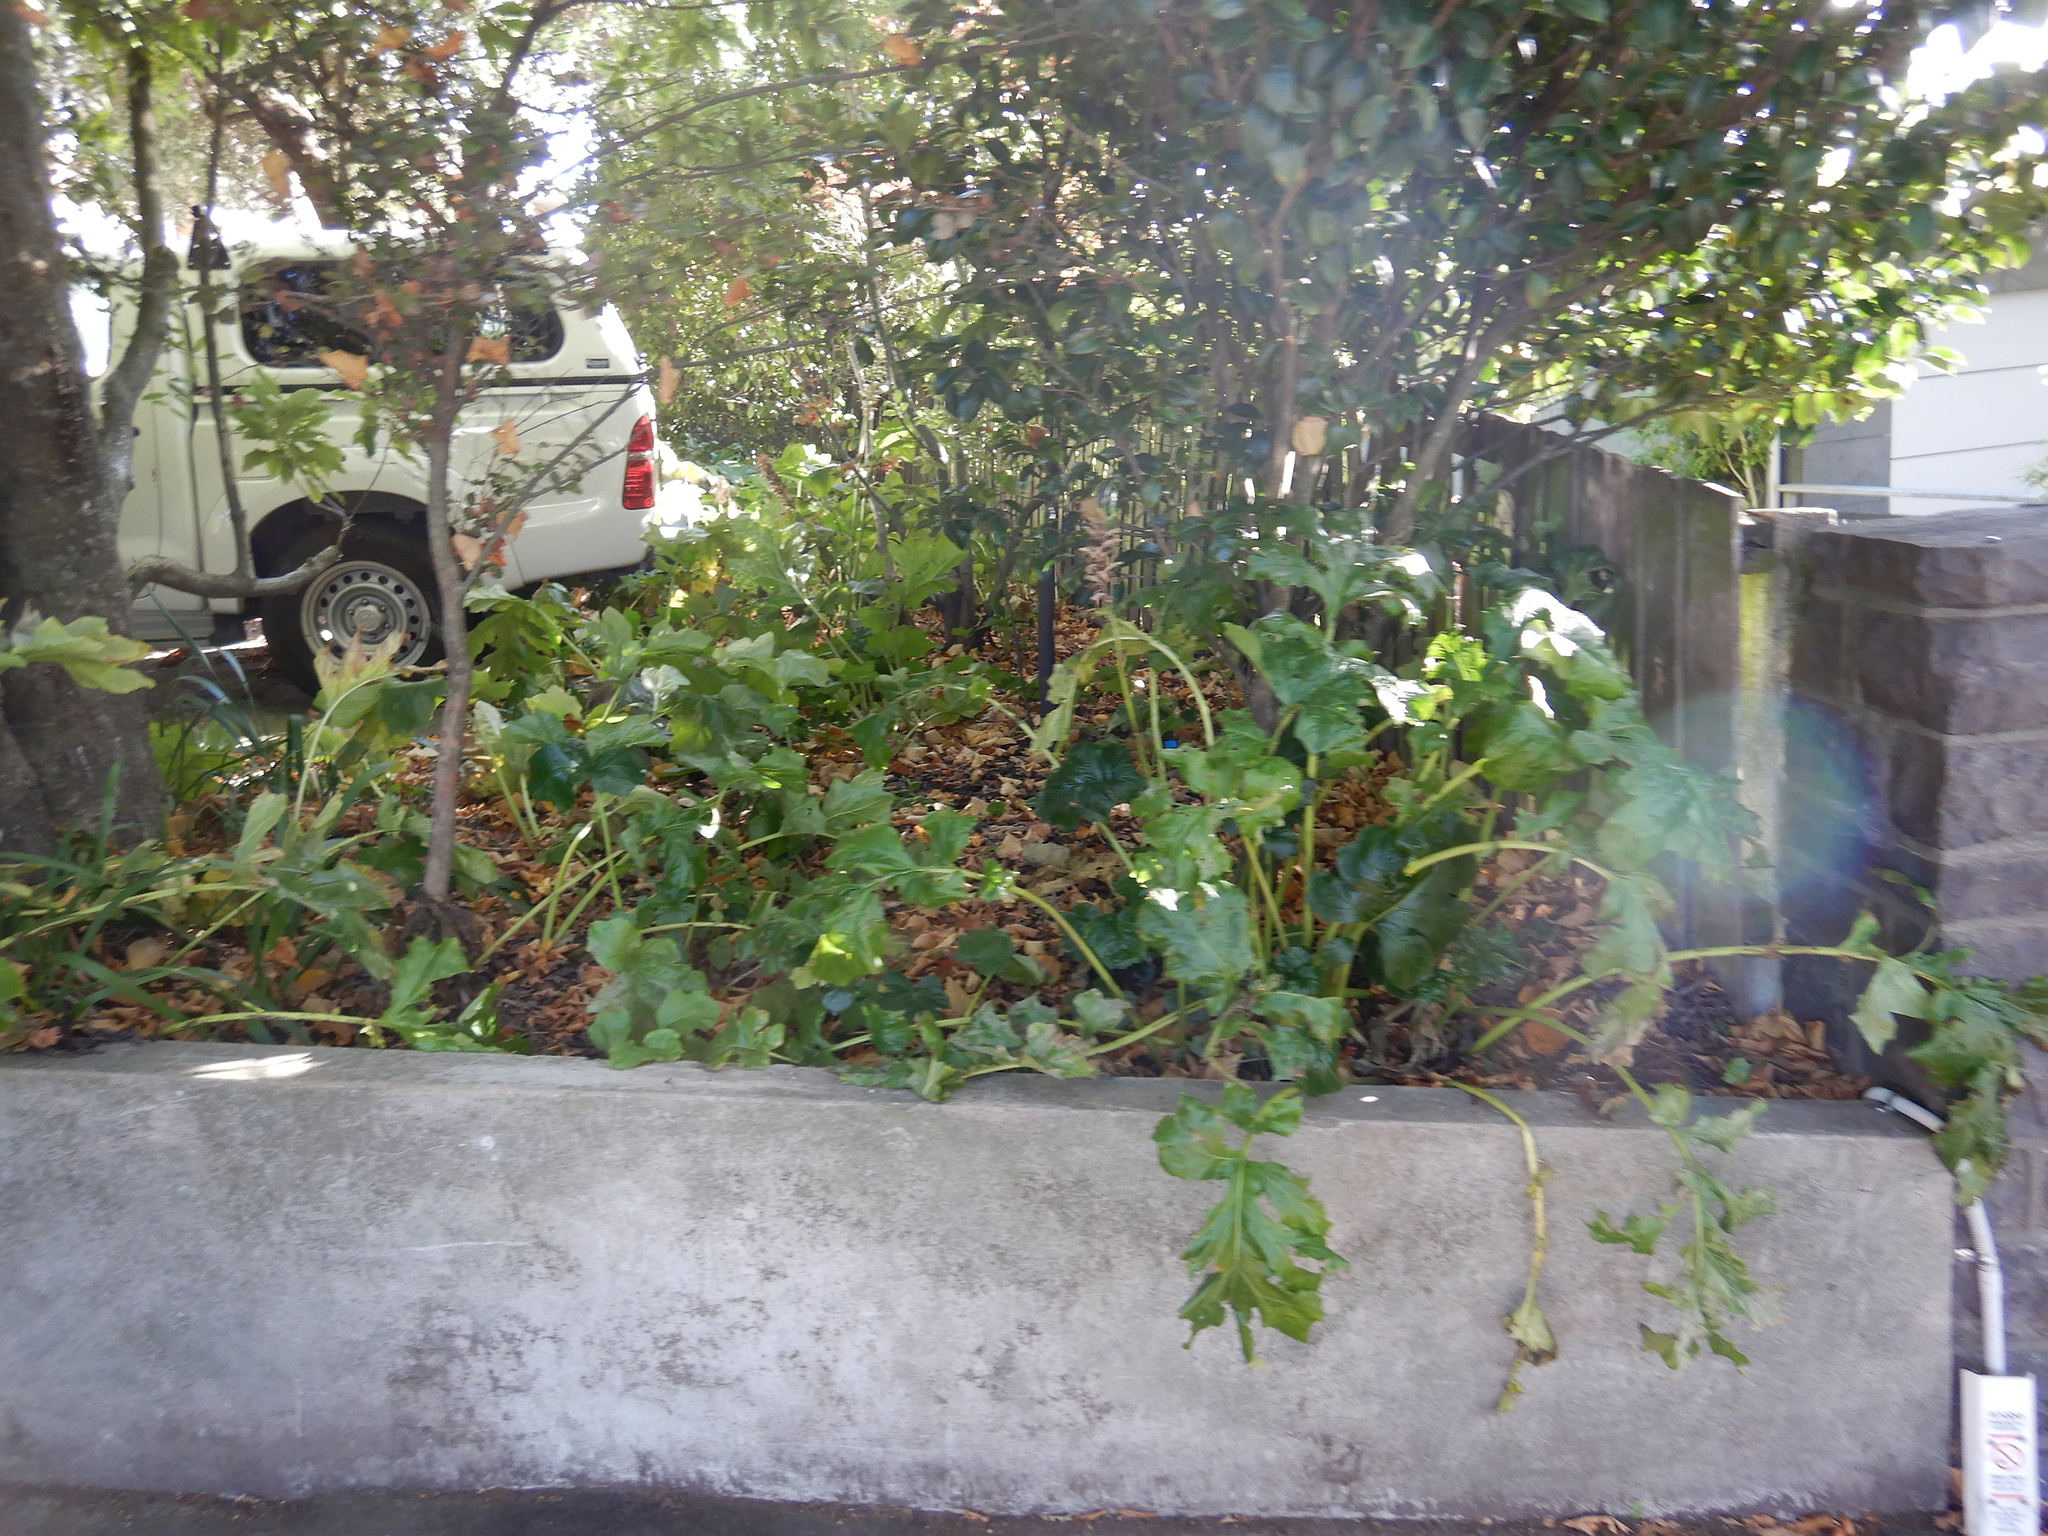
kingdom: Plantae
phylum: Tracheophyta
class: Magnoliopsida
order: Lamiales
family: Acanthaceae
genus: Acanthus
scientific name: Acanthus mollis
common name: Bear's-breech
